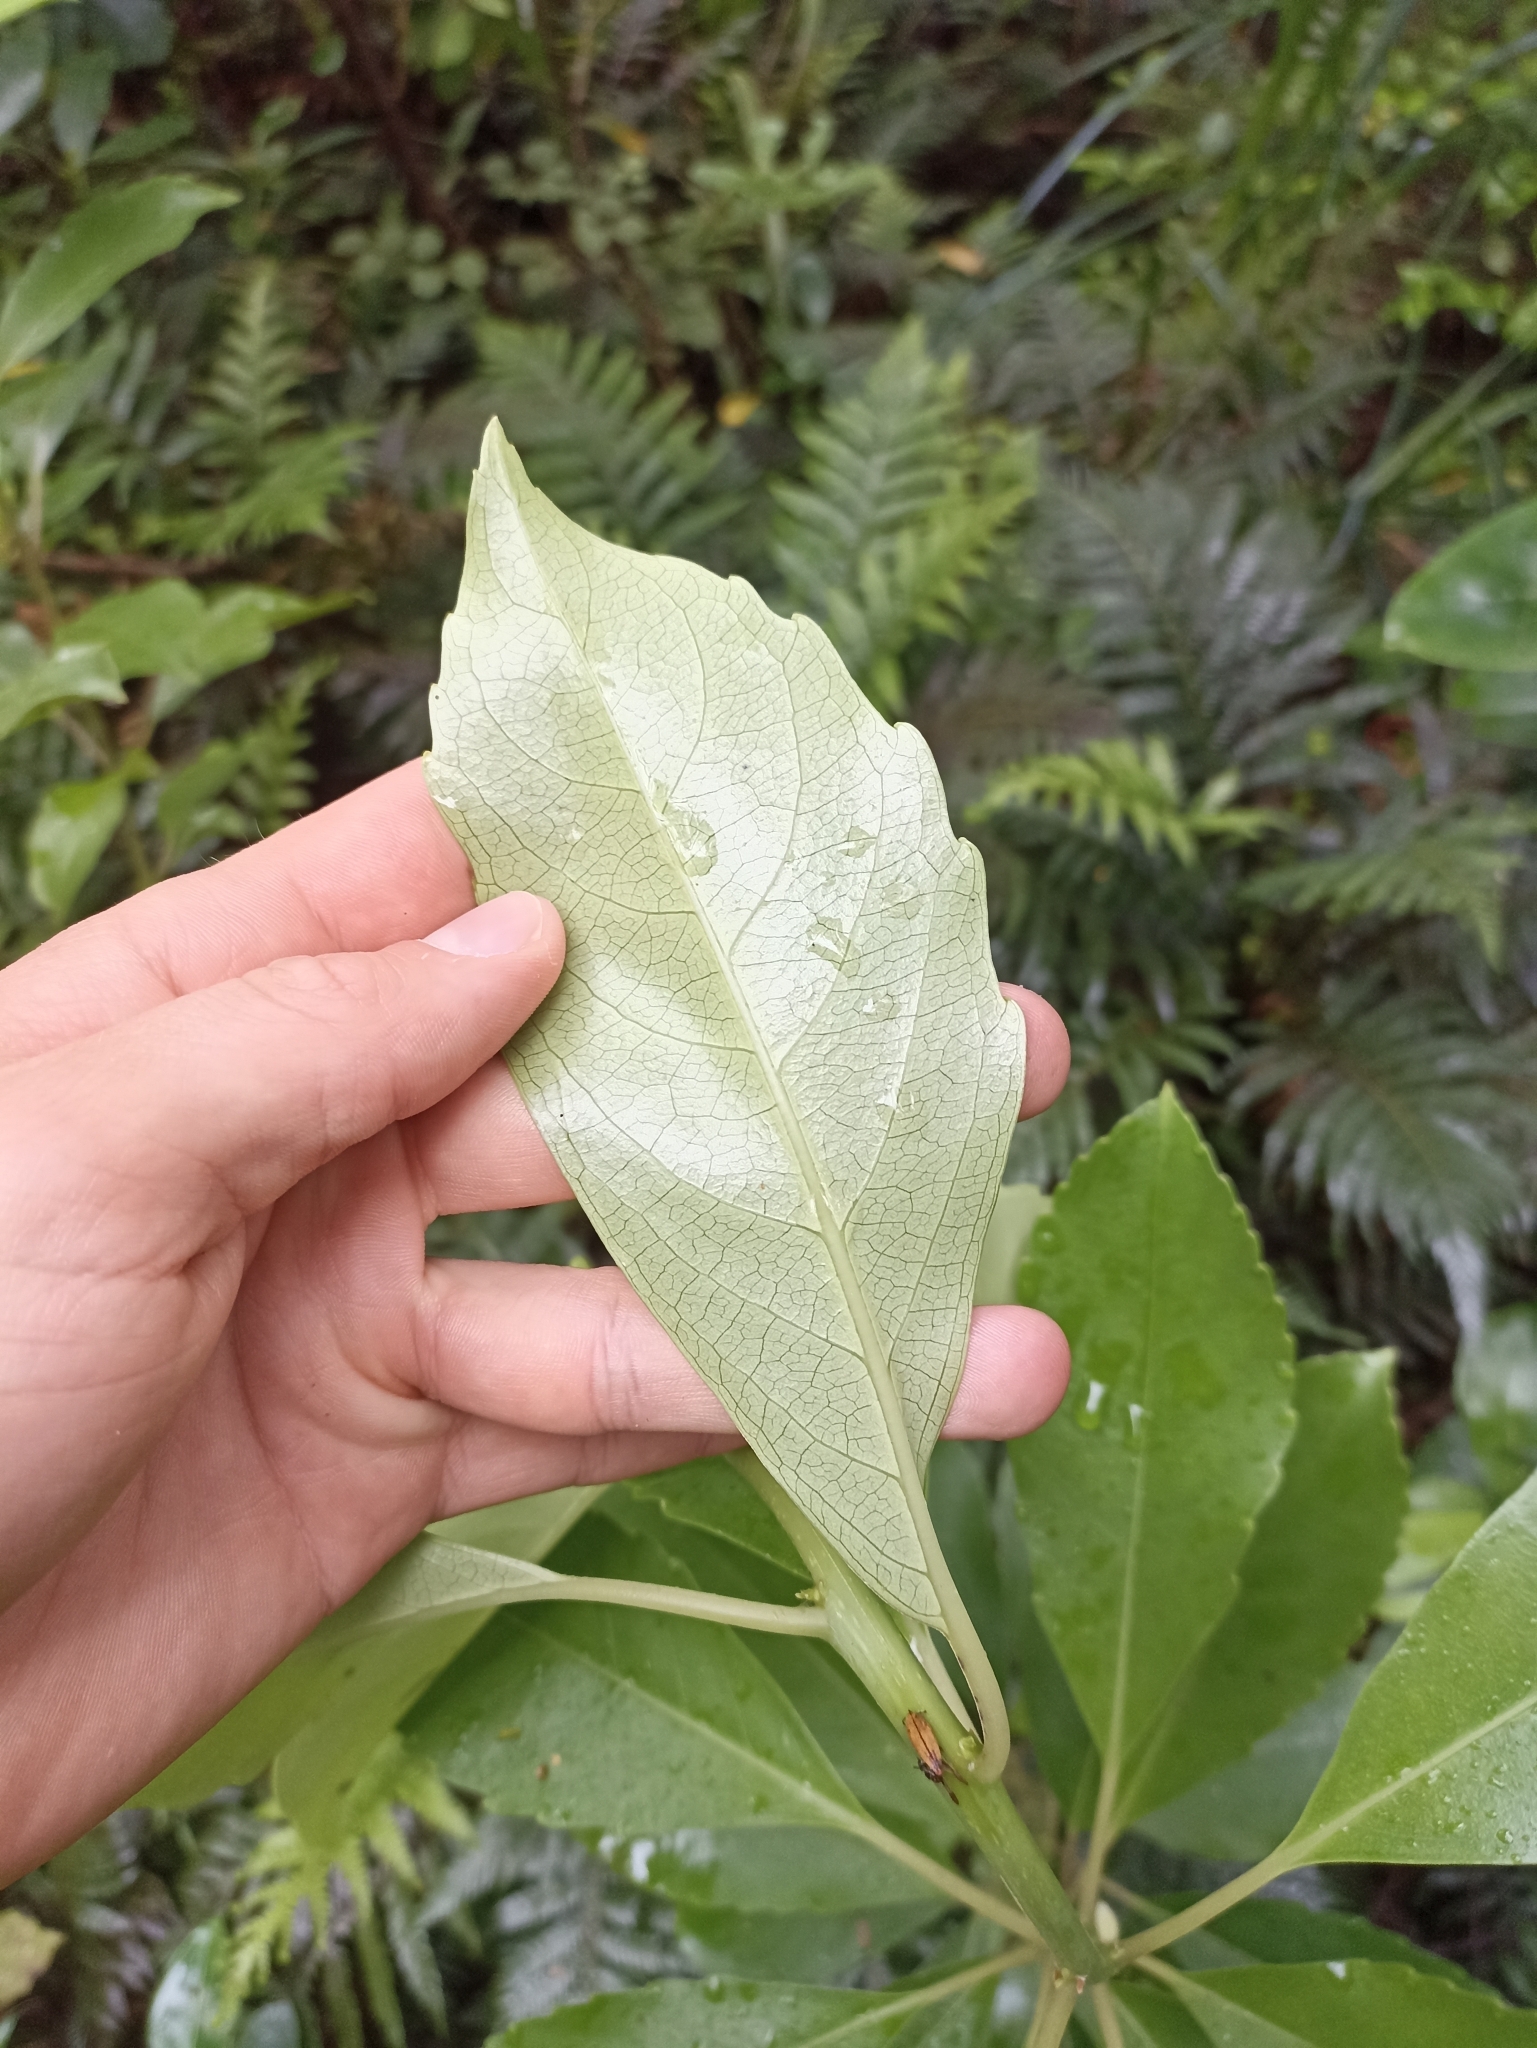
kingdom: Plantae
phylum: Tracheophyta
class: Magnoliopsida
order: Malpighiales
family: Violaceae
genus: Melicytus
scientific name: Melicytus macrophyllus
